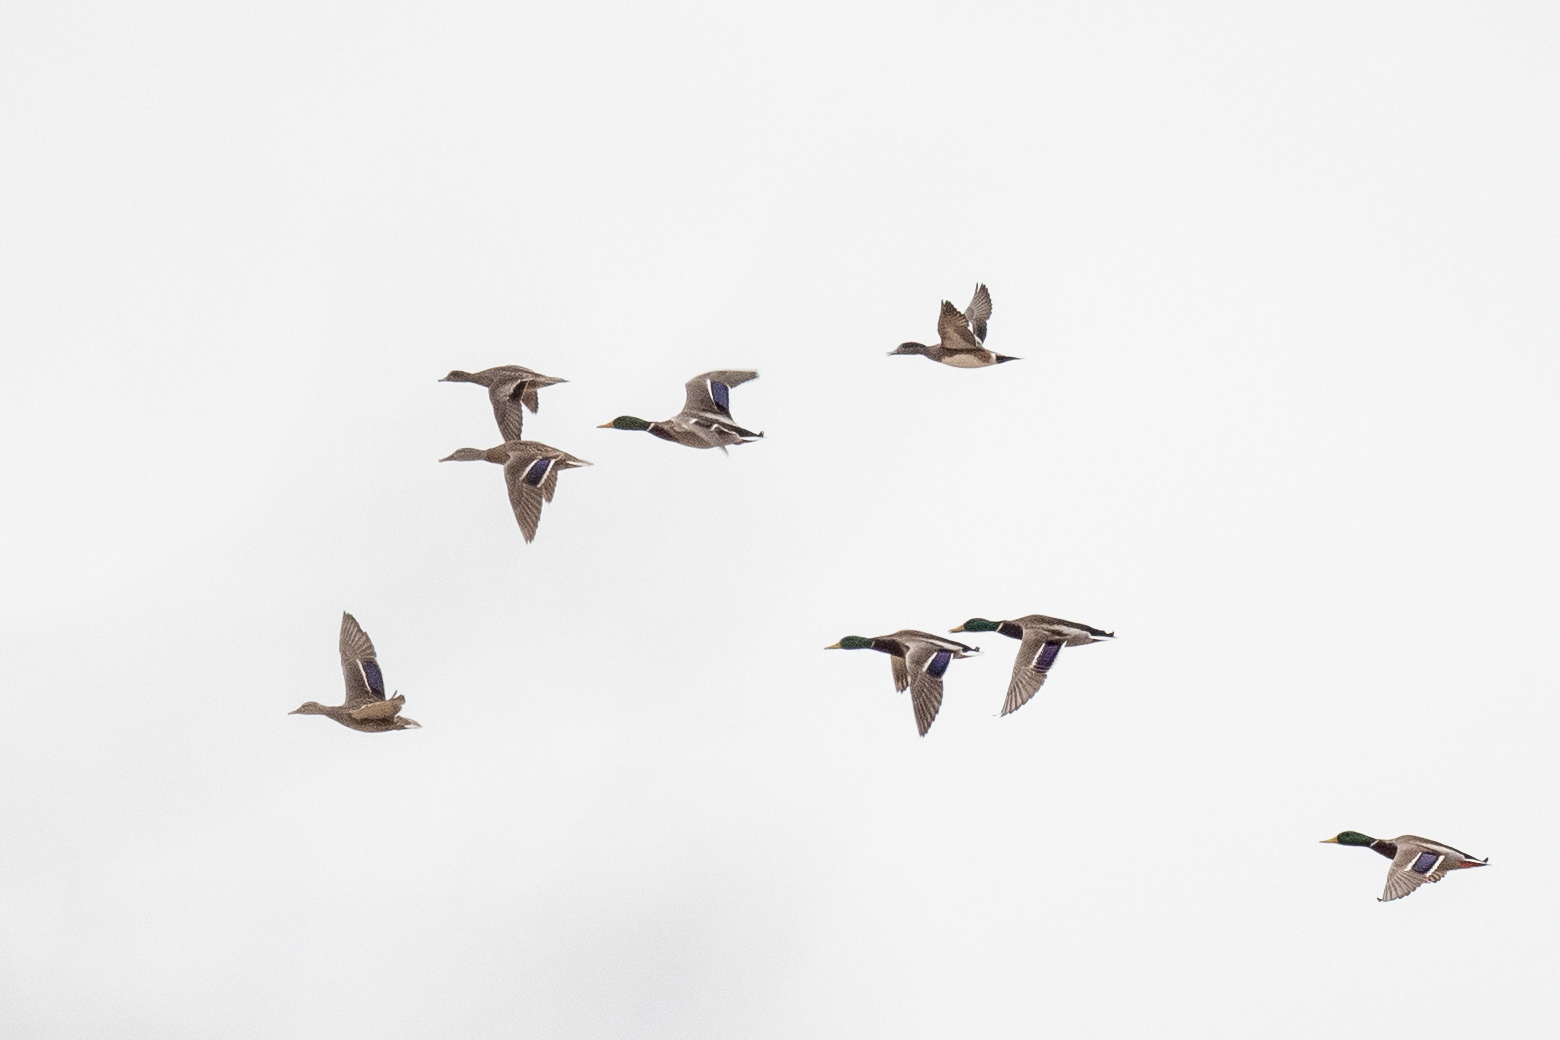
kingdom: Animalia
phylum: Chordata
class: Aves
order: Anseriformes
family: Anatidae
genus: Mareca
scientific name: Mareca americana
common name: American wigeon
